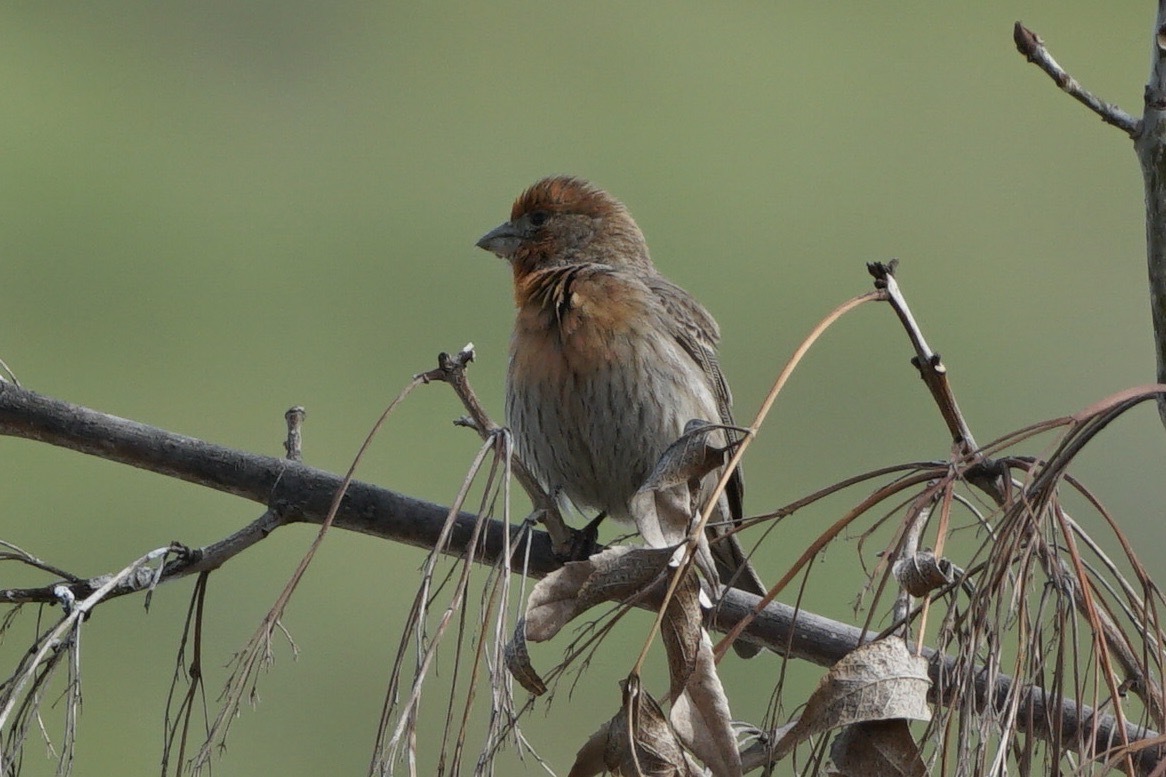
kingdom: Animalia
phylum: Chordata
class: Aves
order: Passeriformes
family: Fringillidae
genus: Haemorhous
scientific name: Haemorhous mexicanus
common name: House finch
